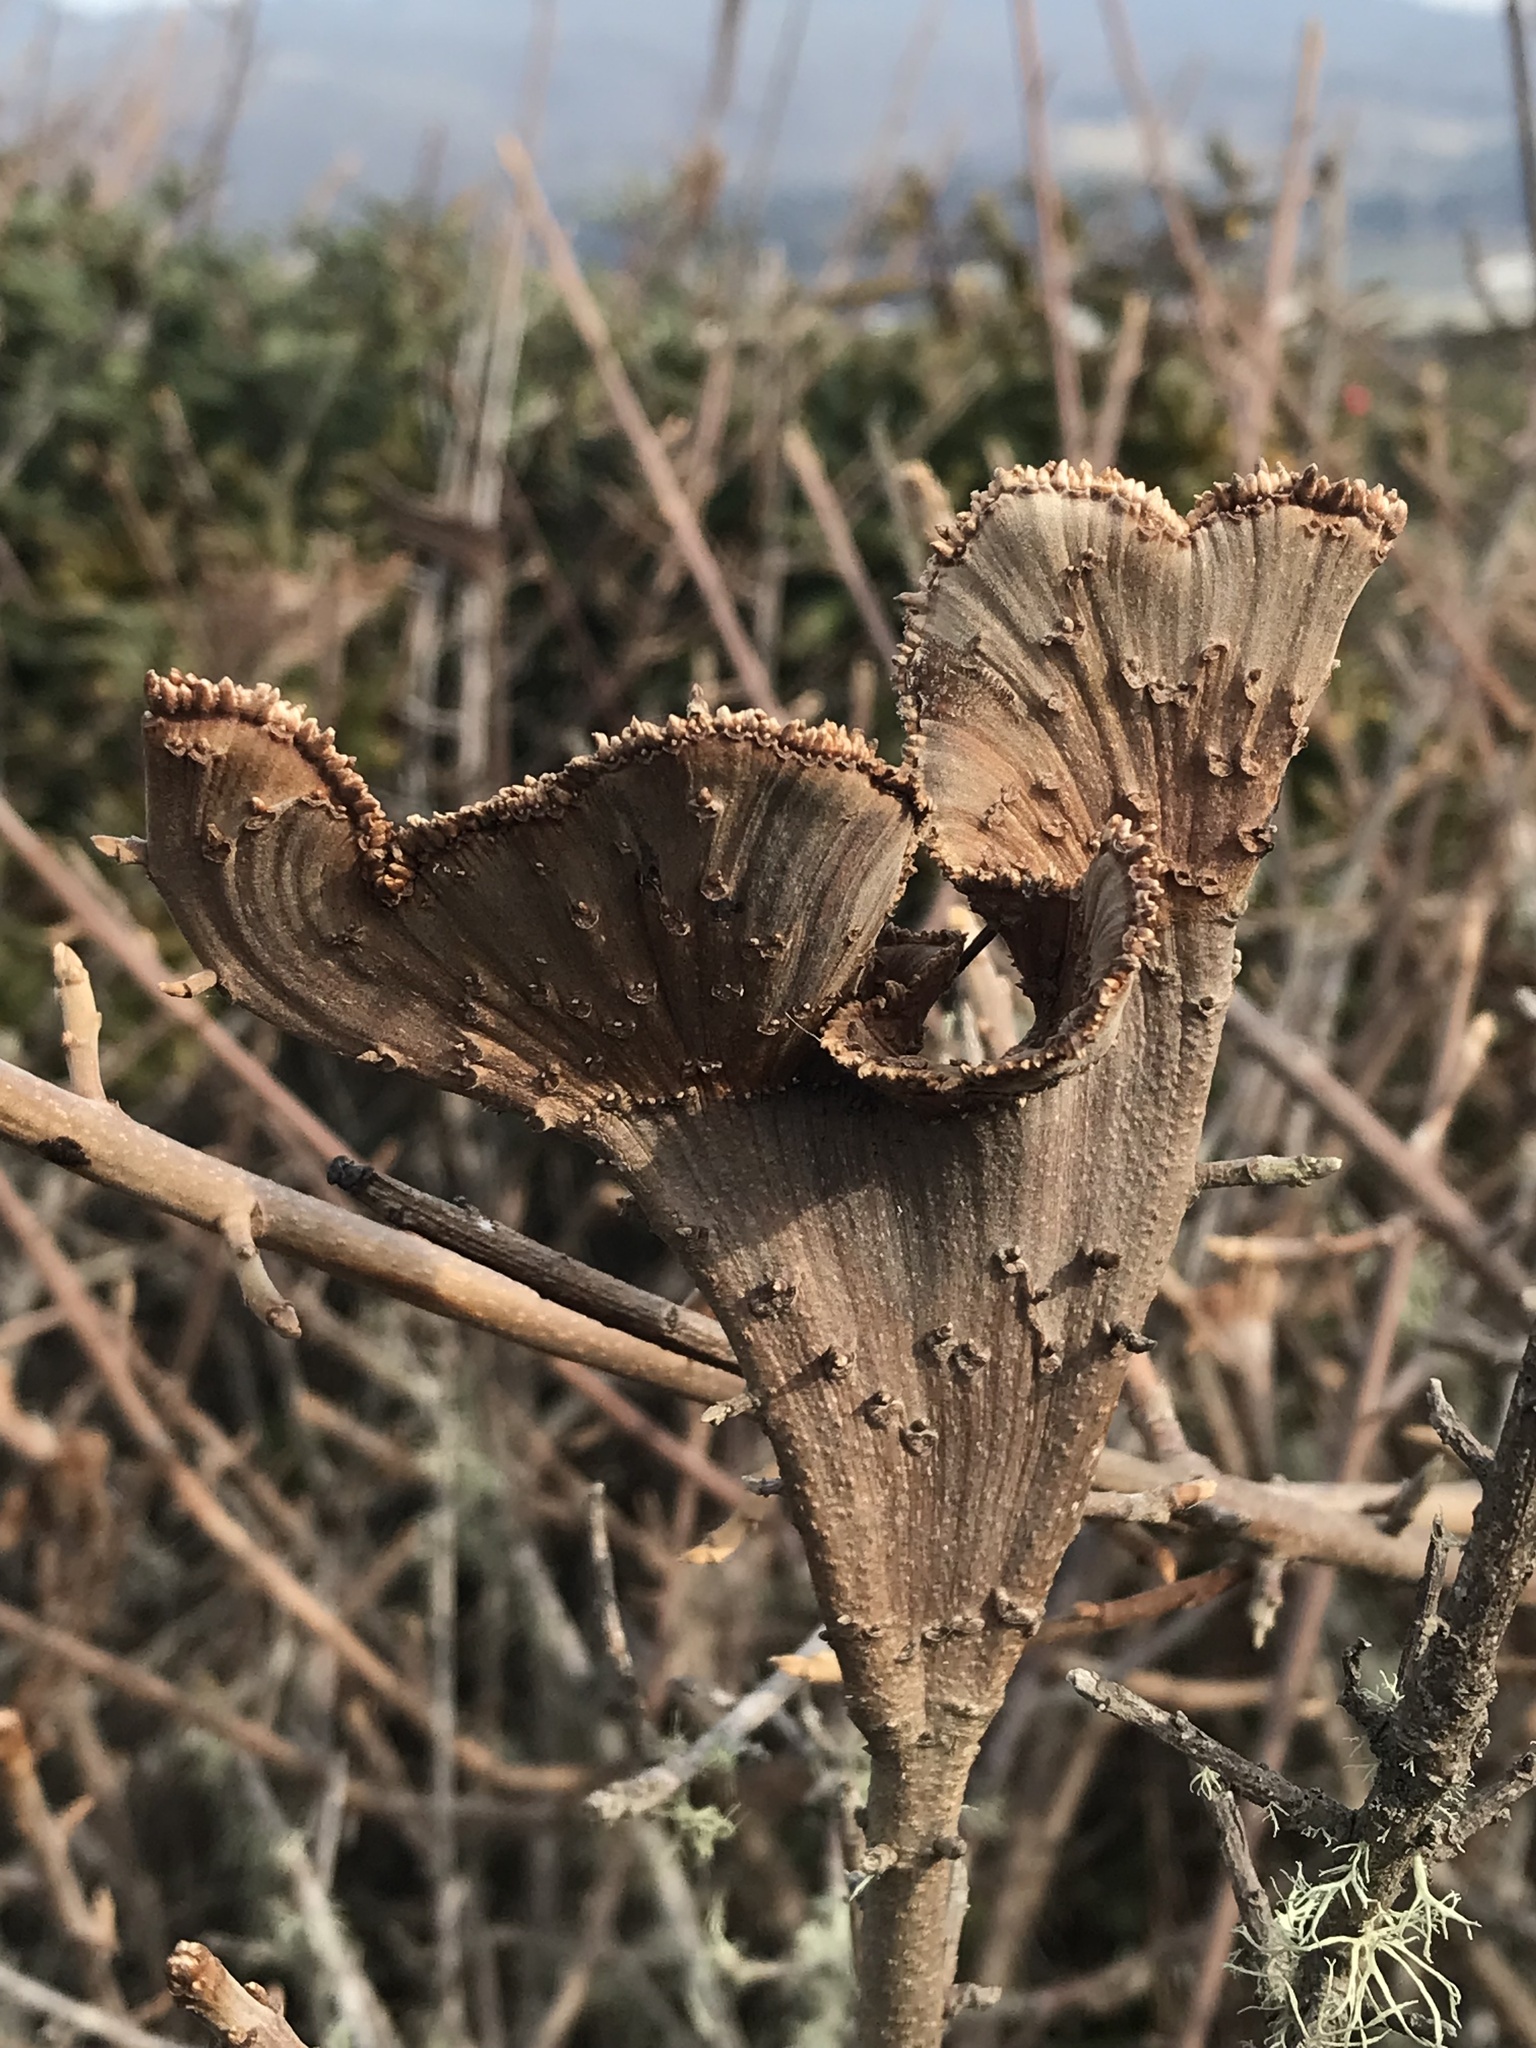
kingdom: Plantae
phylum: Tracheophyta
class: Magnoliopsida
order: Sapindales
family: Anacardiaceae
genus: Toxicodendron
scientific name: Toxicodendron diversilobum
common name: Pacific poison-oak
